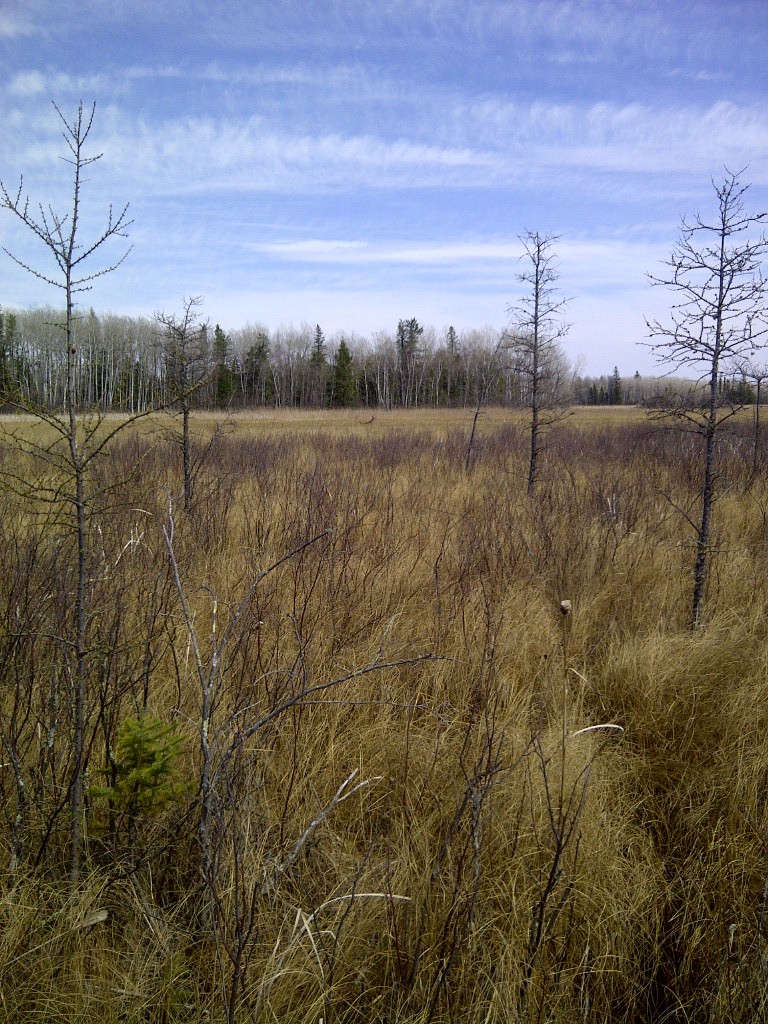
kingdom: Animalia
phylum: Chordata
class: Mammalia
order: Artiodactyla
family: Cervidae
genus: Odocoileus
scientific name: Odocoileus virginianus
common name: White-tailed deer
